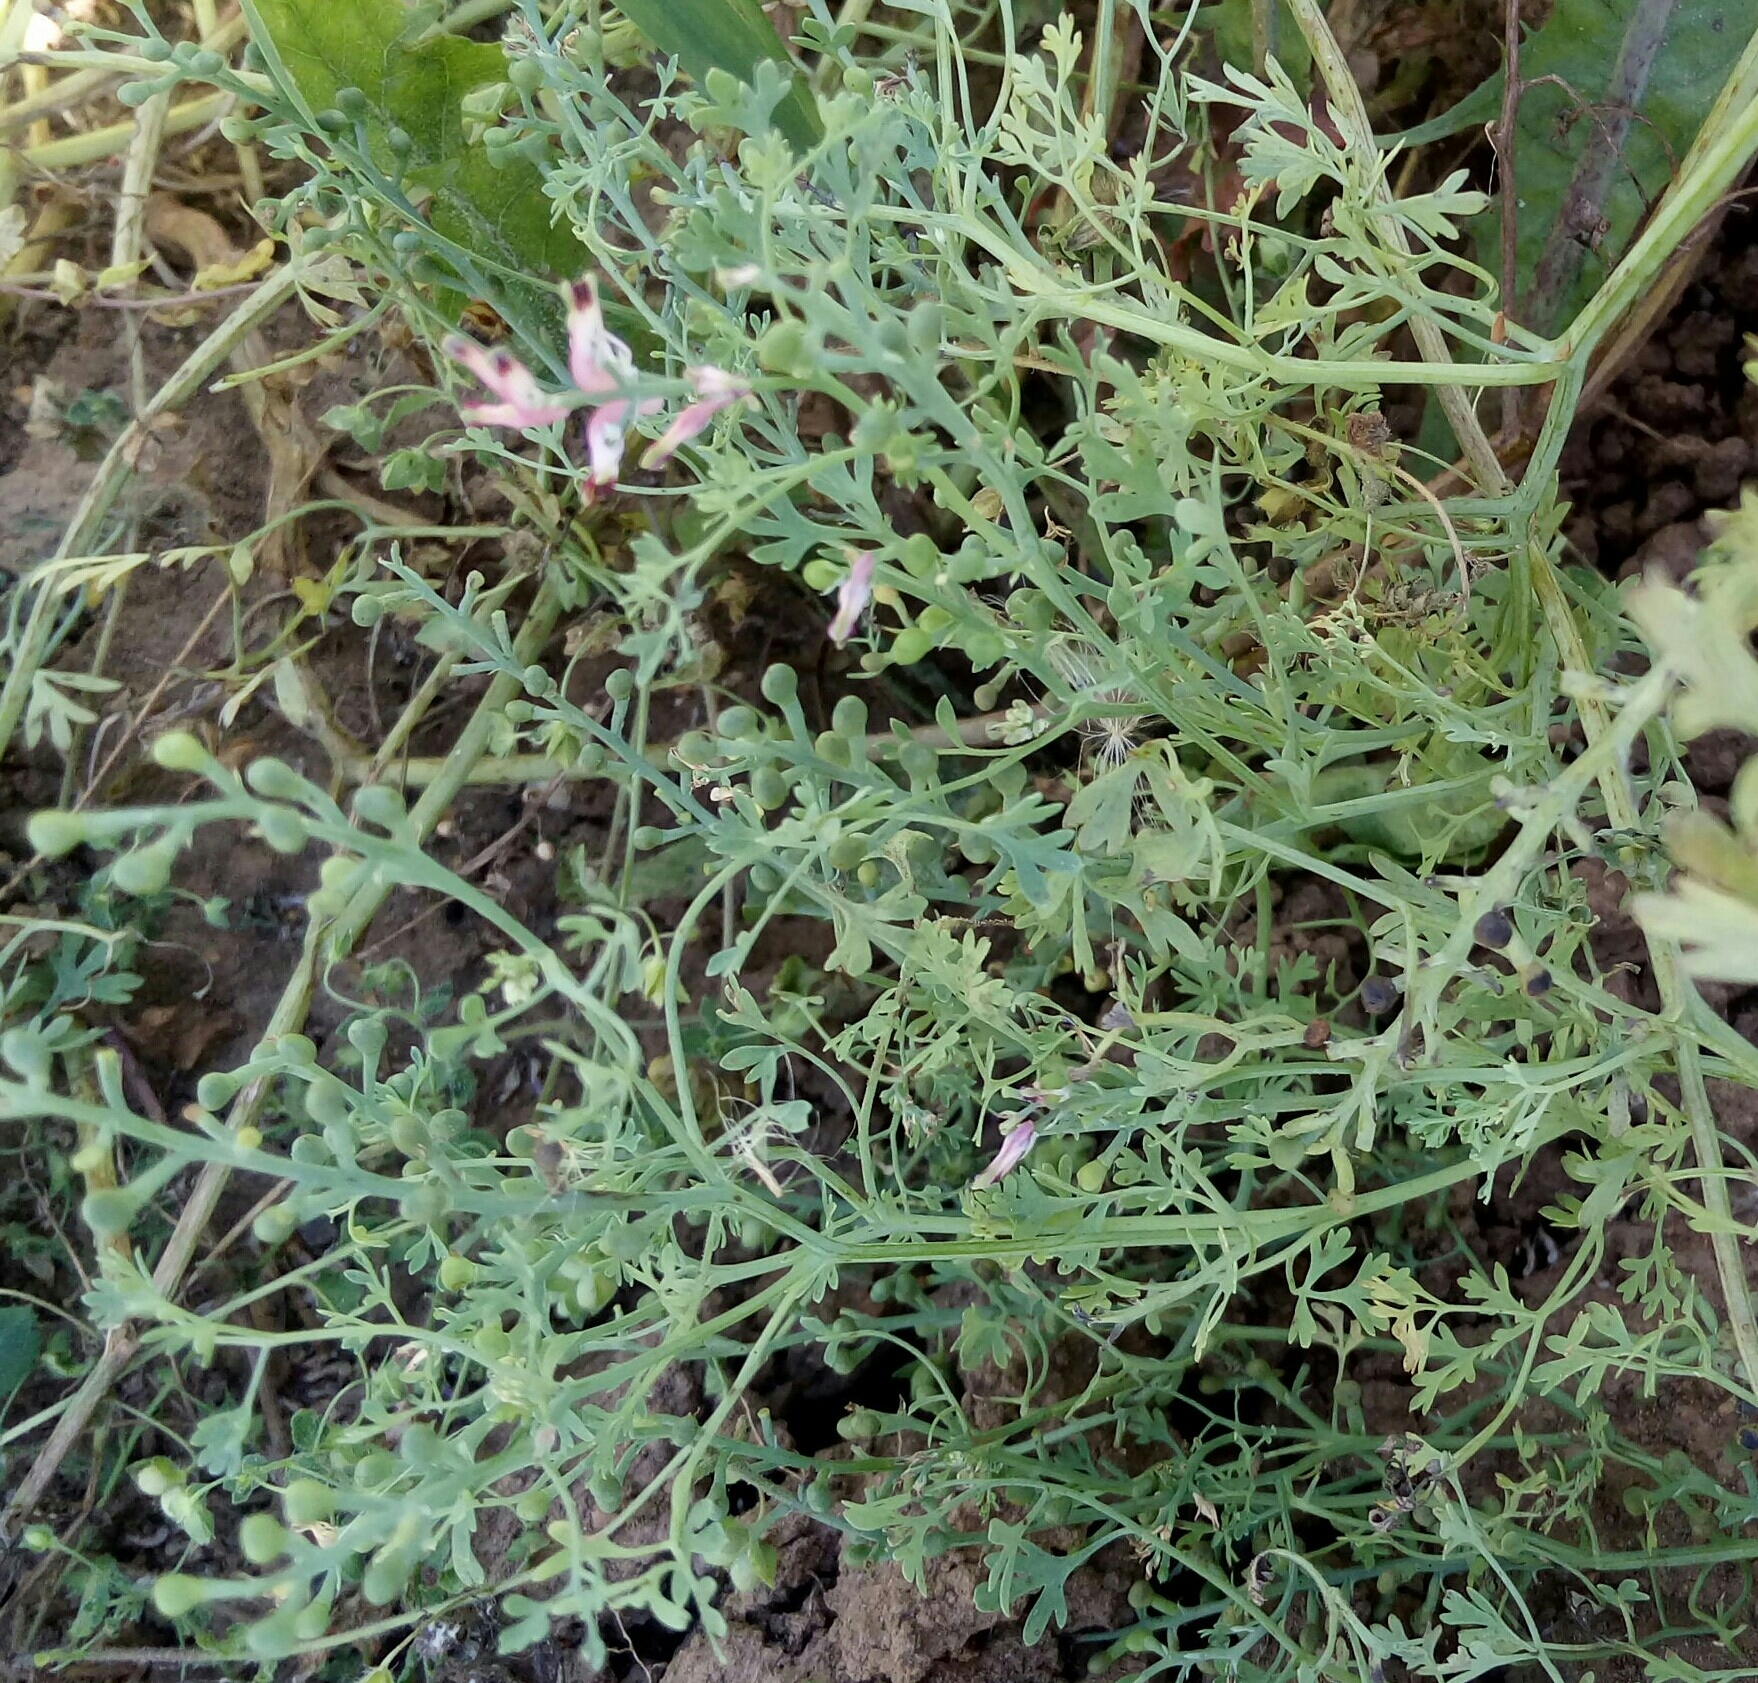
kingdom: Plantae
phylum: Tracheophyta
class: Magnoliopsida
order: Ranunculales
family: Papaveraceae
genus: Fumaria
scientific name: Fumaria officinalis
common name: Common fumitory
